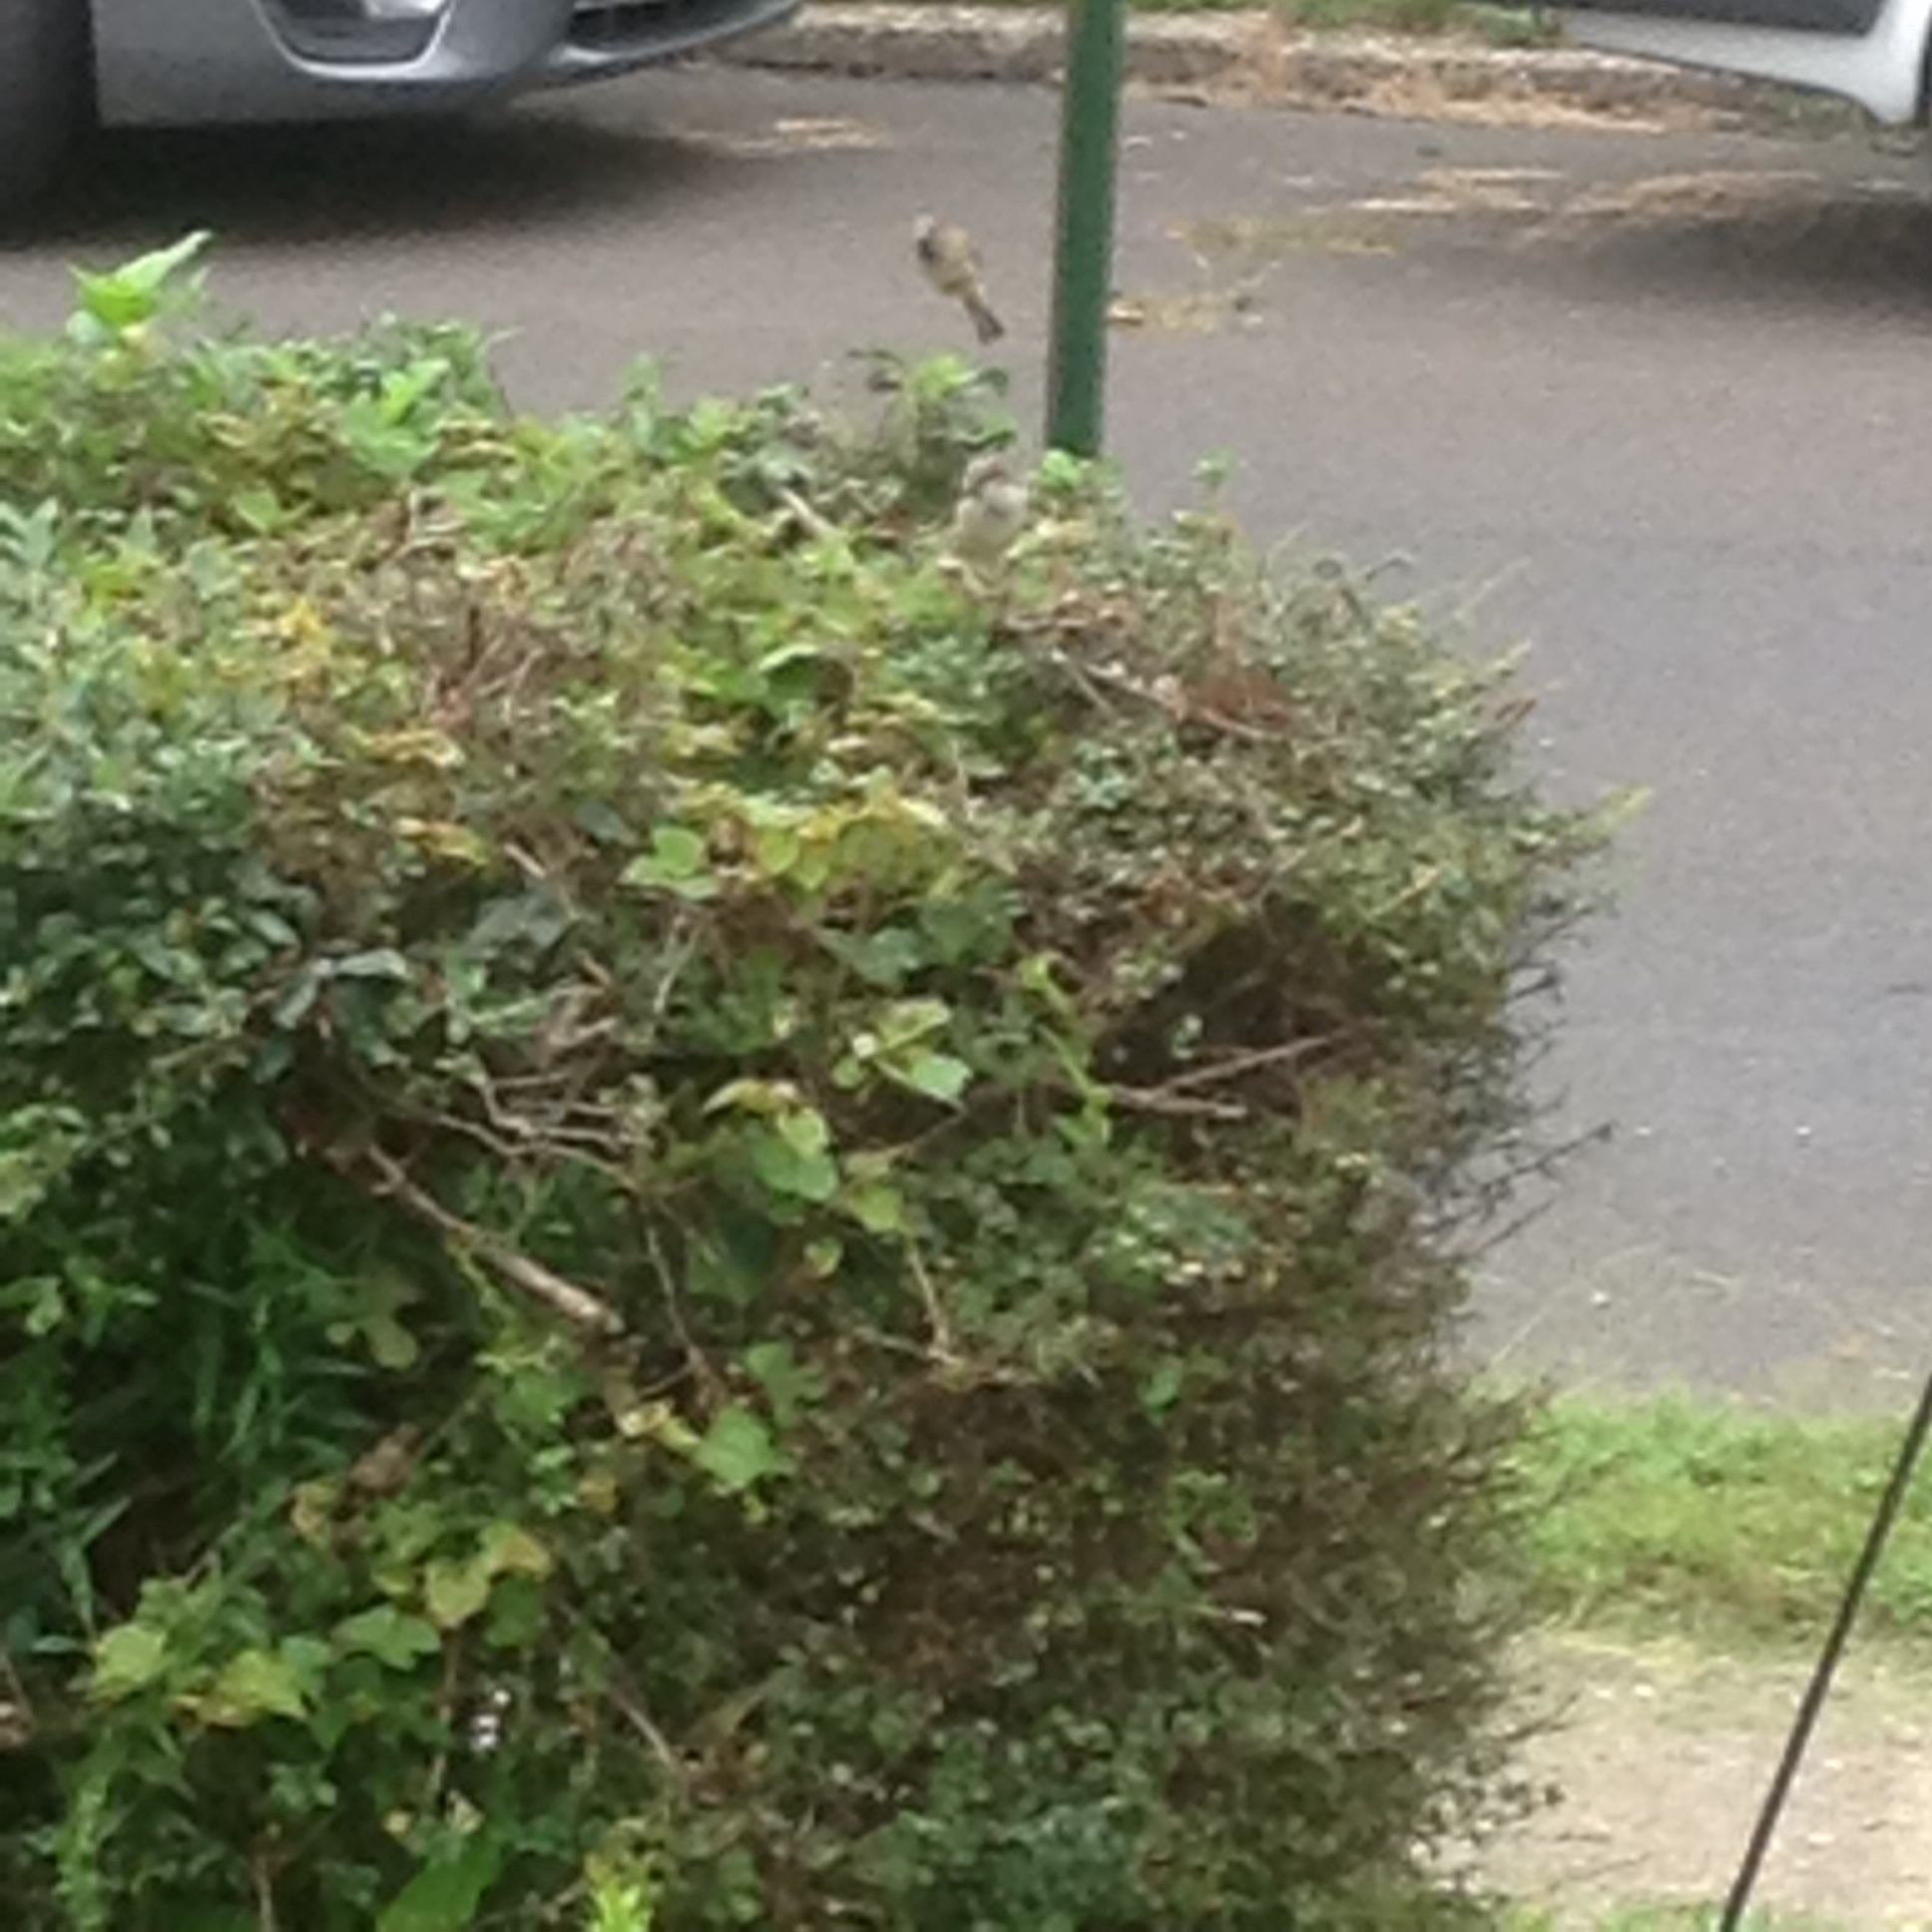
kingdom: Animalia
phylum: Chordata
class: Aves
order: Passeriformes
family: Passeridae
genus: Passer
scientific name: Passer domesticus
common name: House sparrow
